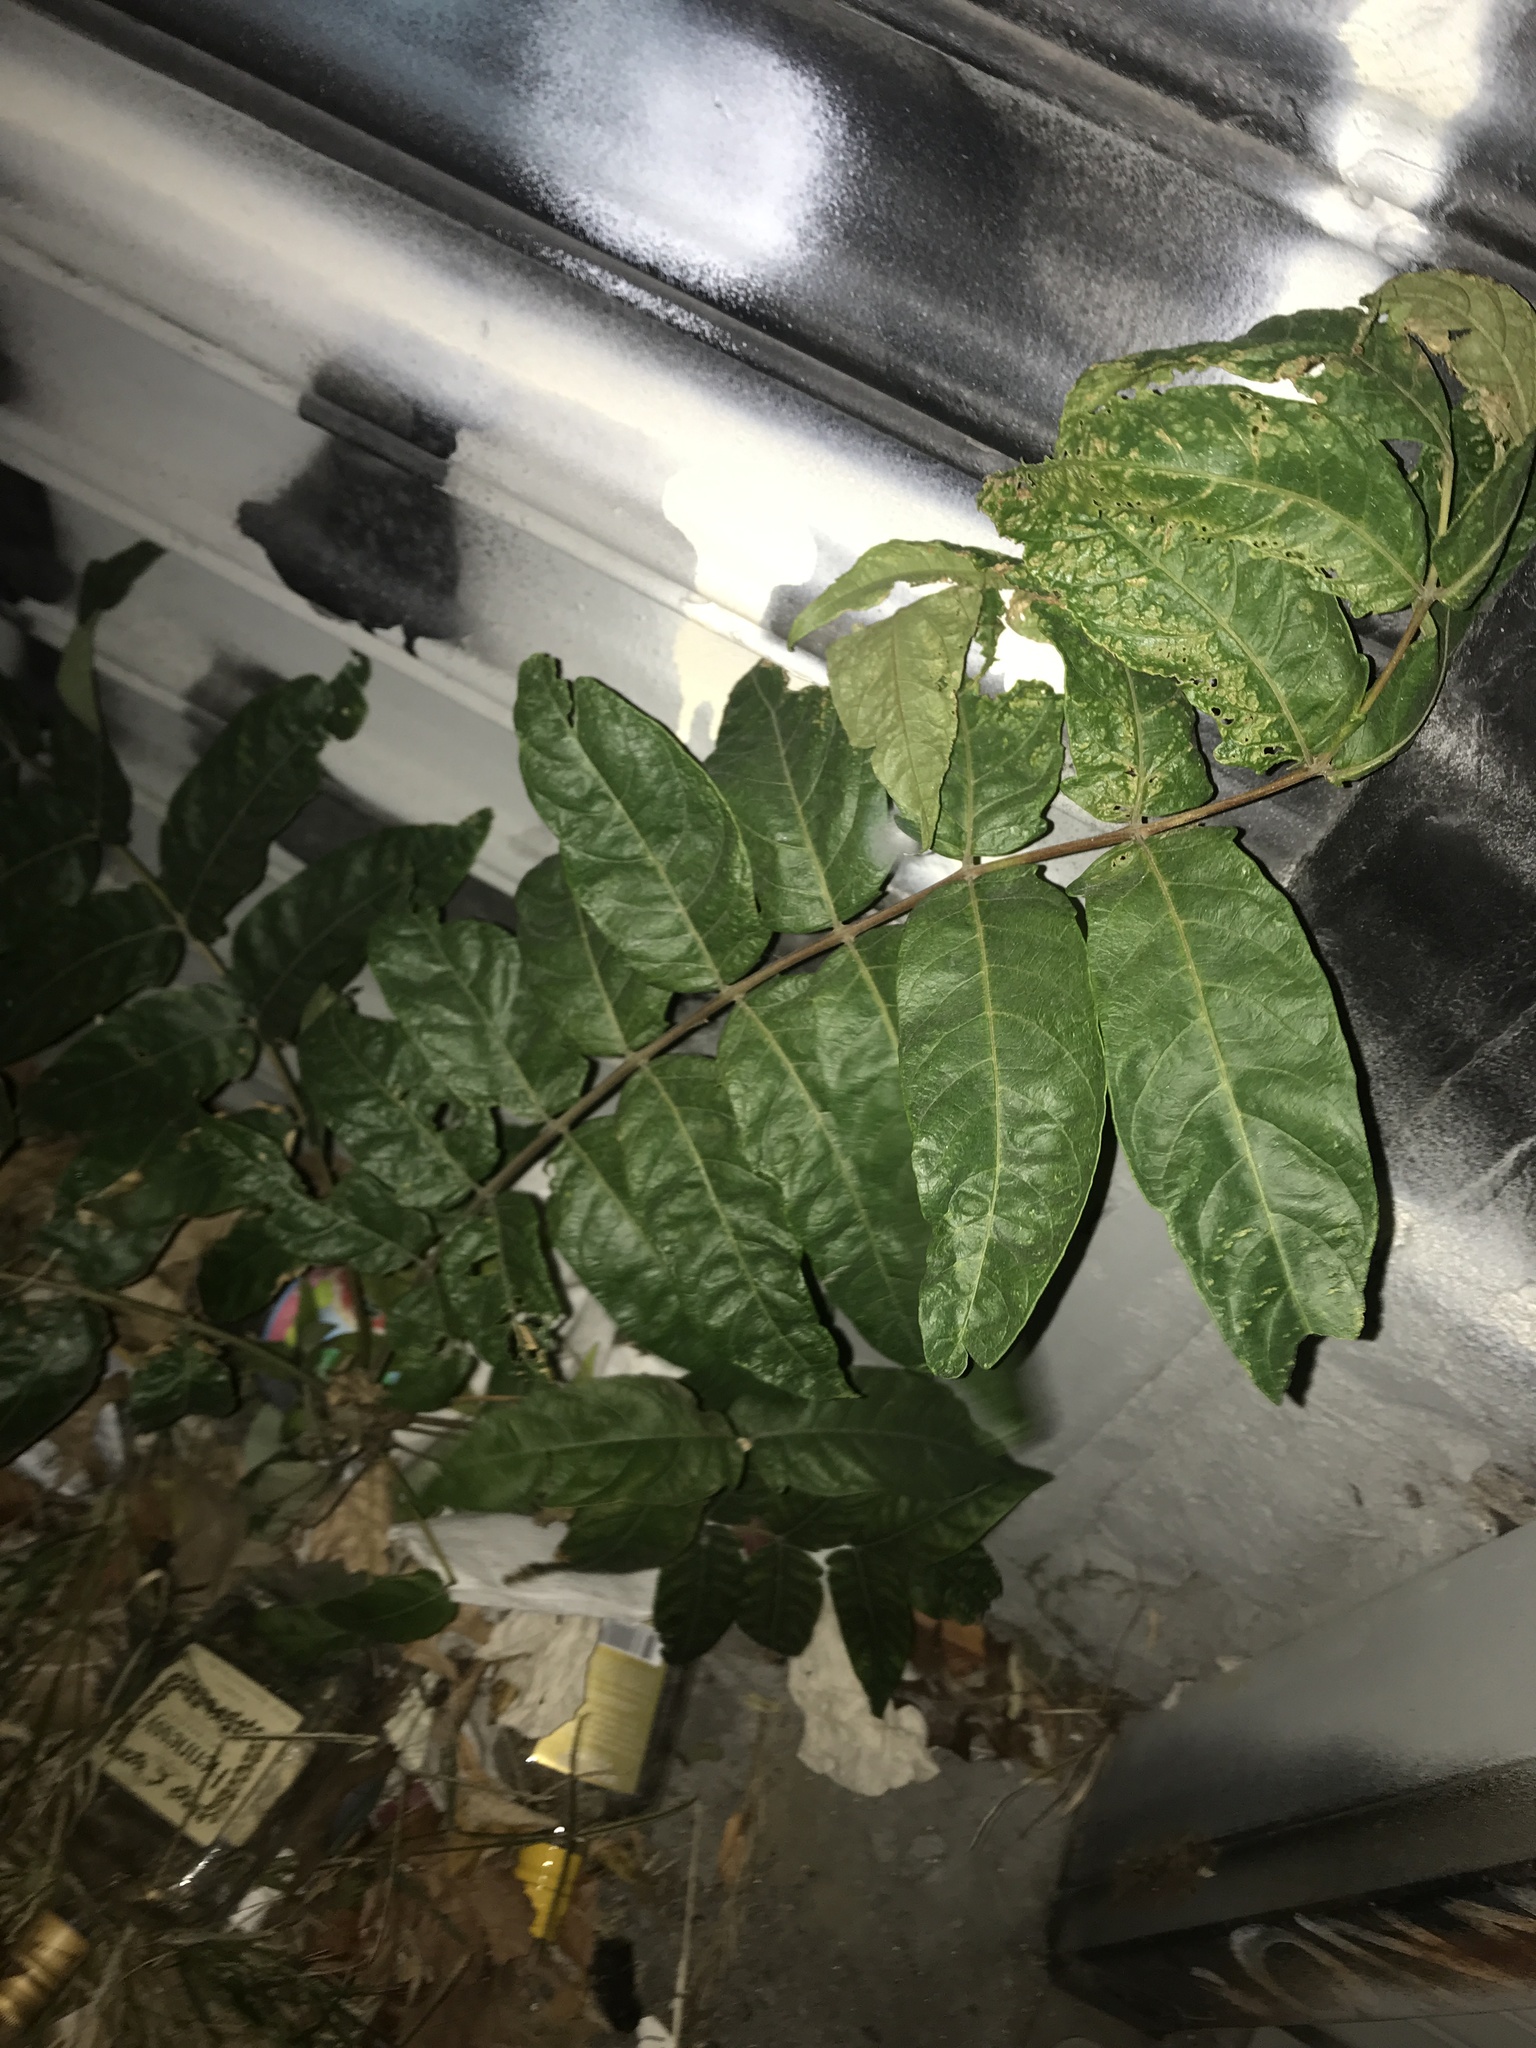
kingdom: Plantae
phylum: Tracheophyta
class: Magnoliopsida
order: Sapindales
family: Simaroubaceae
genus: Ailanthus
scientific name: Ailanthus altissima
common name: Tree-of-heaven
